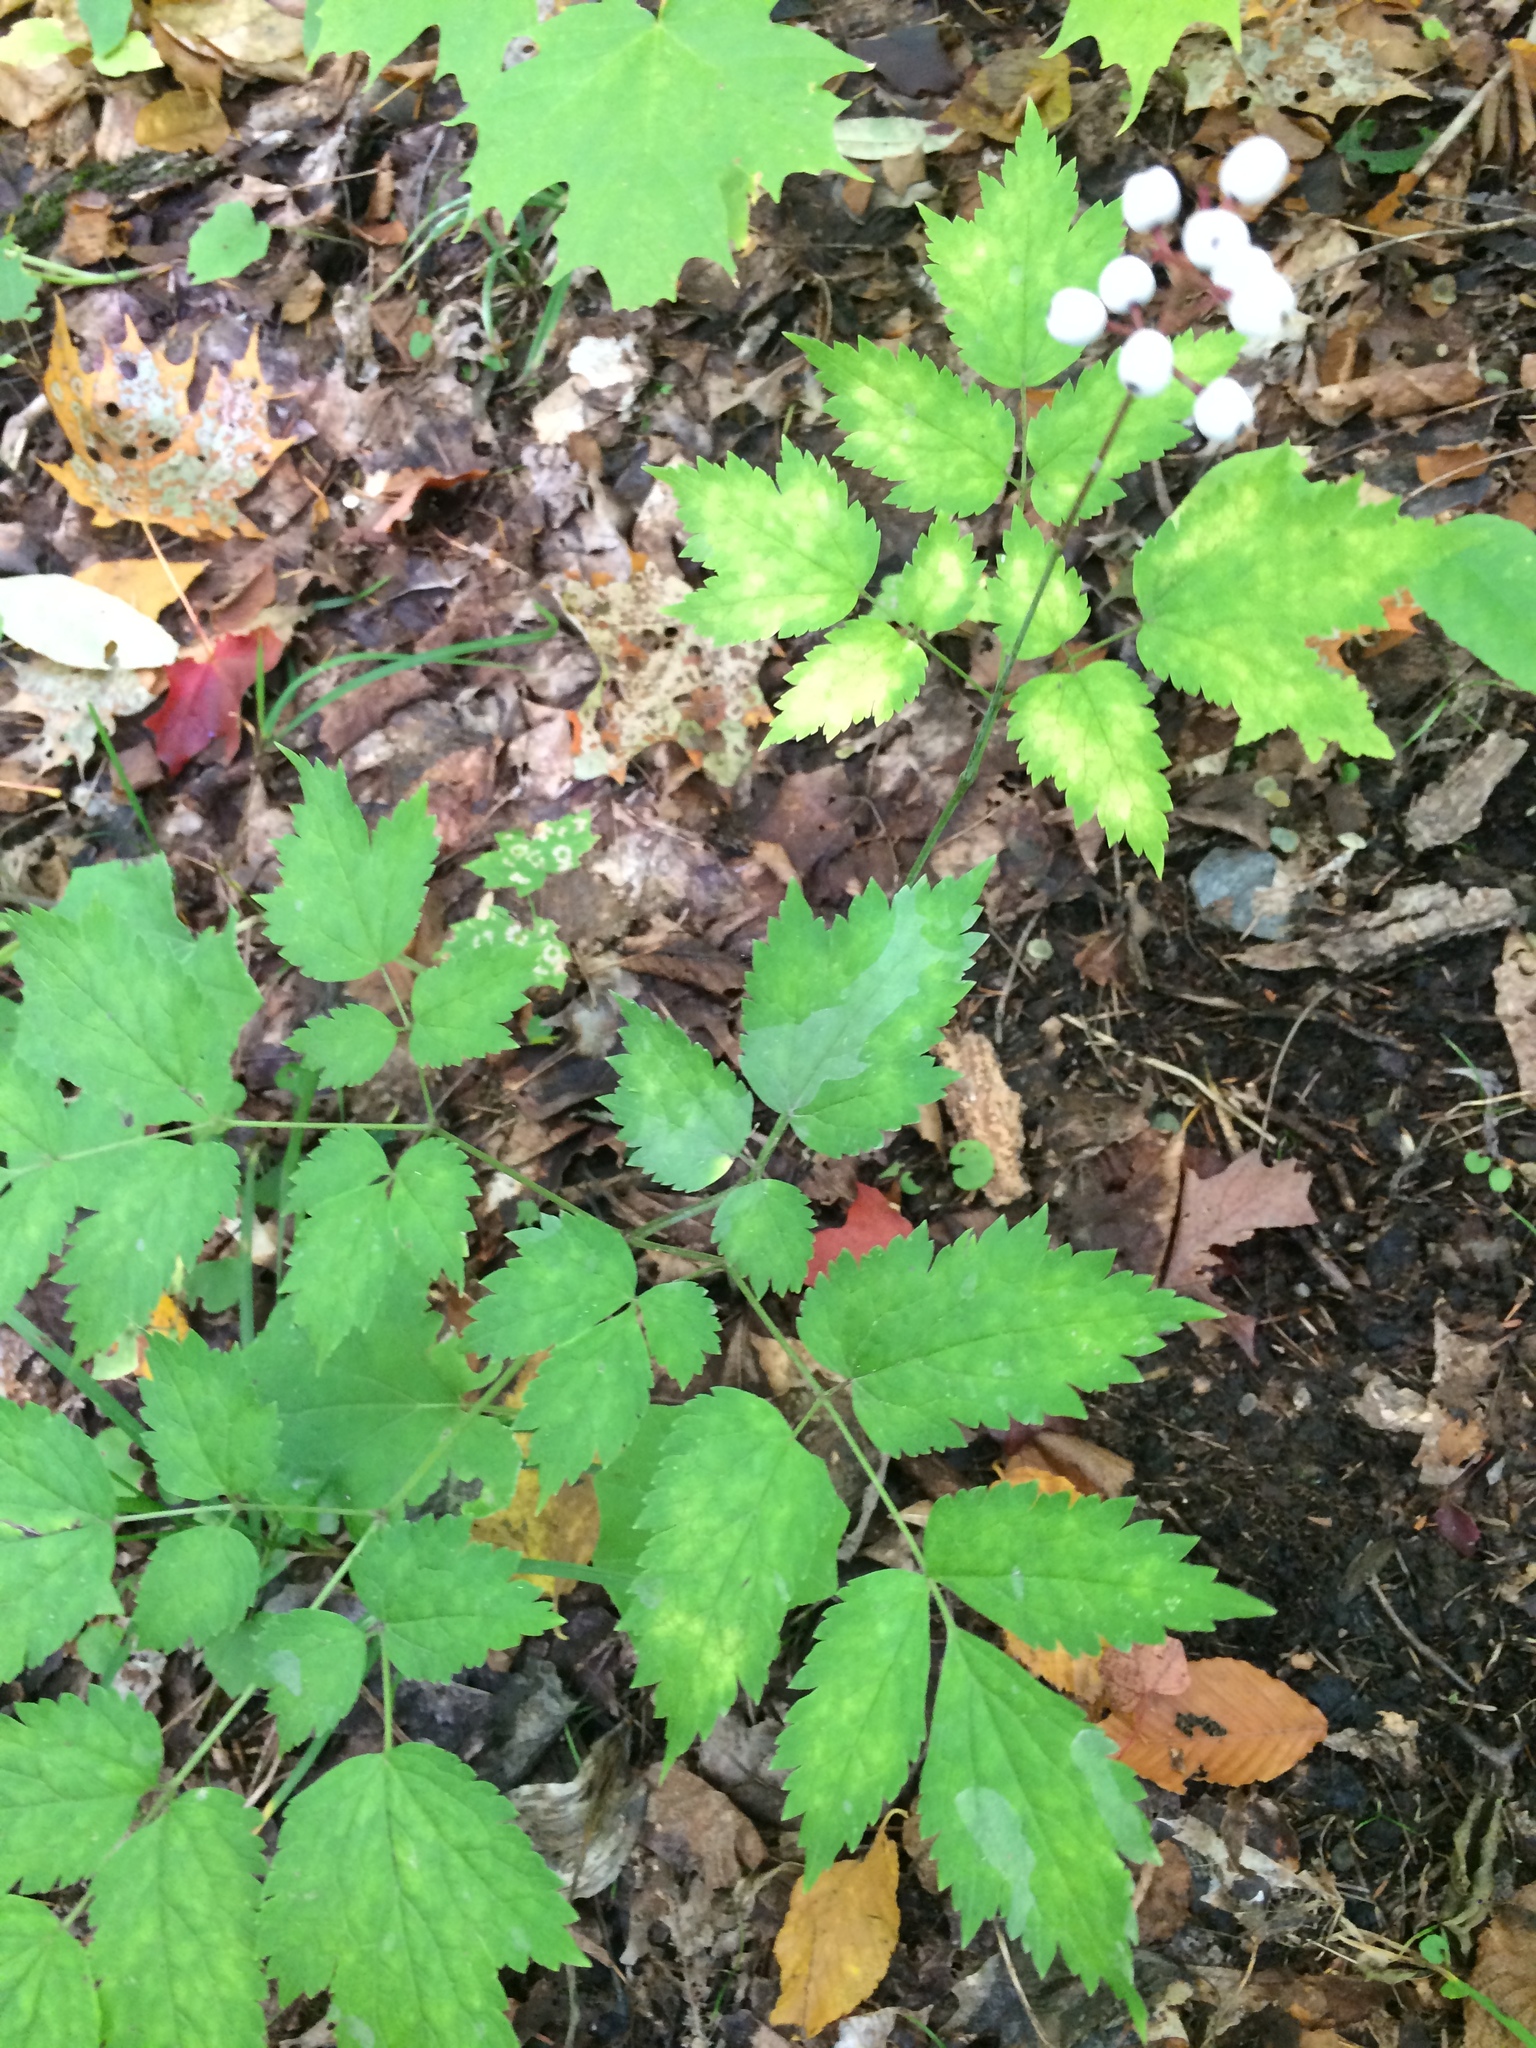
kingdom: Plantae
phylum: Tracheophyta
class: Magnoliopsida
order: Ranunculales
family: Ranunculaceae
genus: Actaea
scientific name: Actaea pachypoda
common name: Doll's-eyes
